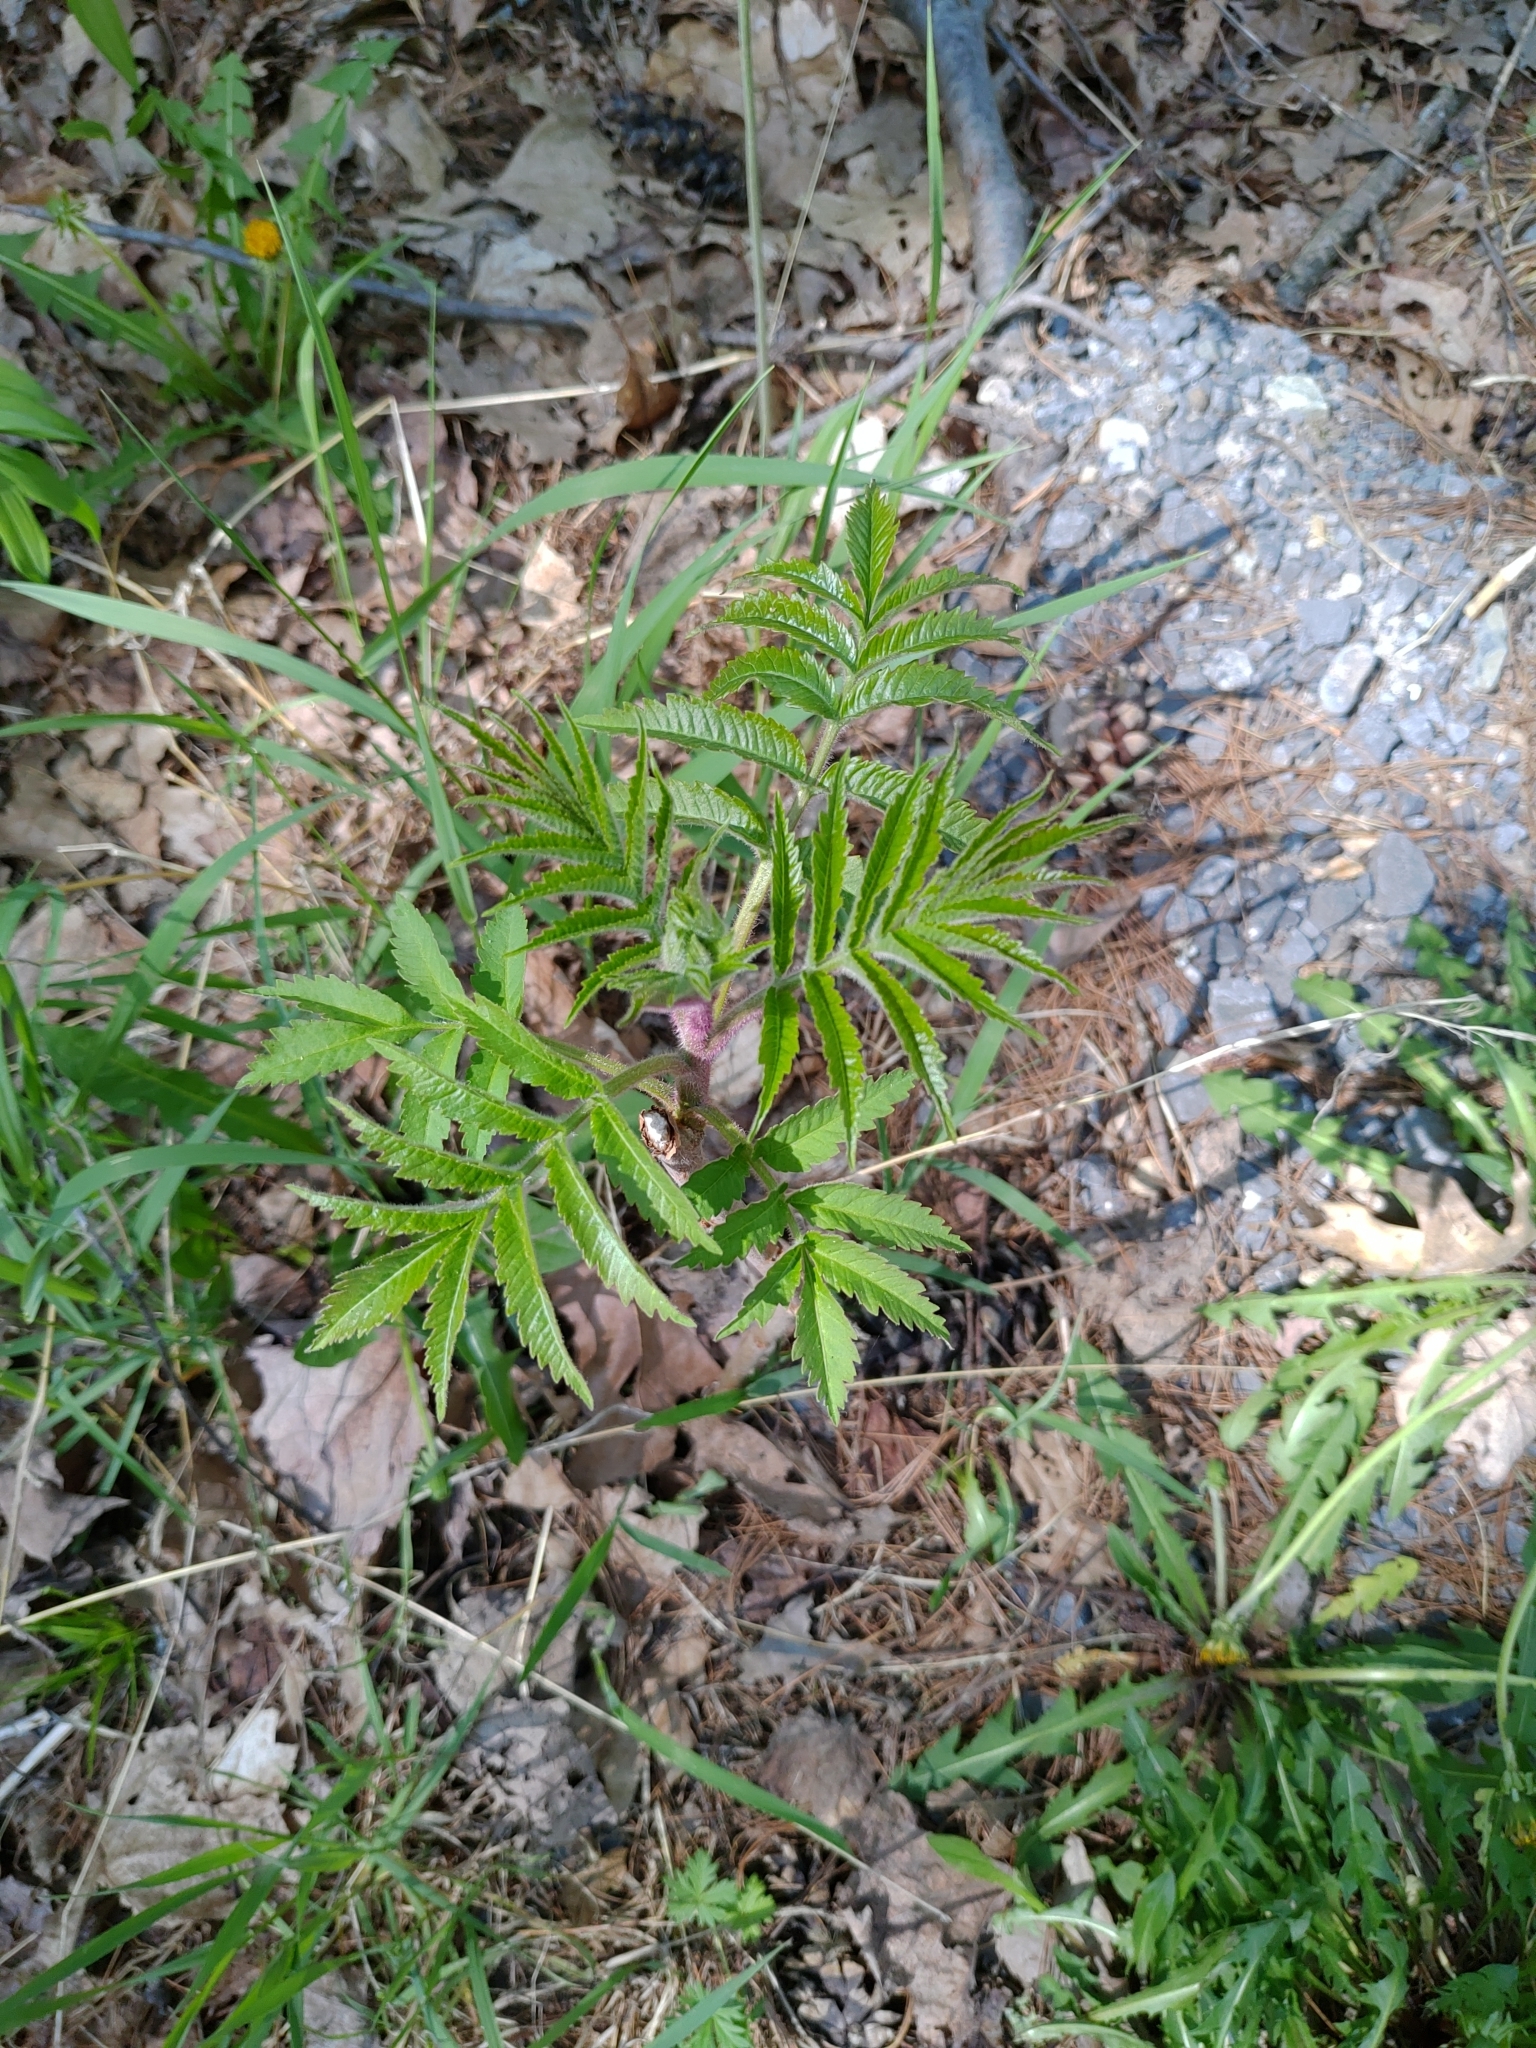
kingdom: Plantae
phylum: Tracheophyta
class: Magnoliopsida
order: Sapindales
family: Anacardiaceae
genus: Rhus
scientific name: Rhus typhina
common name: Staghorn sumac
